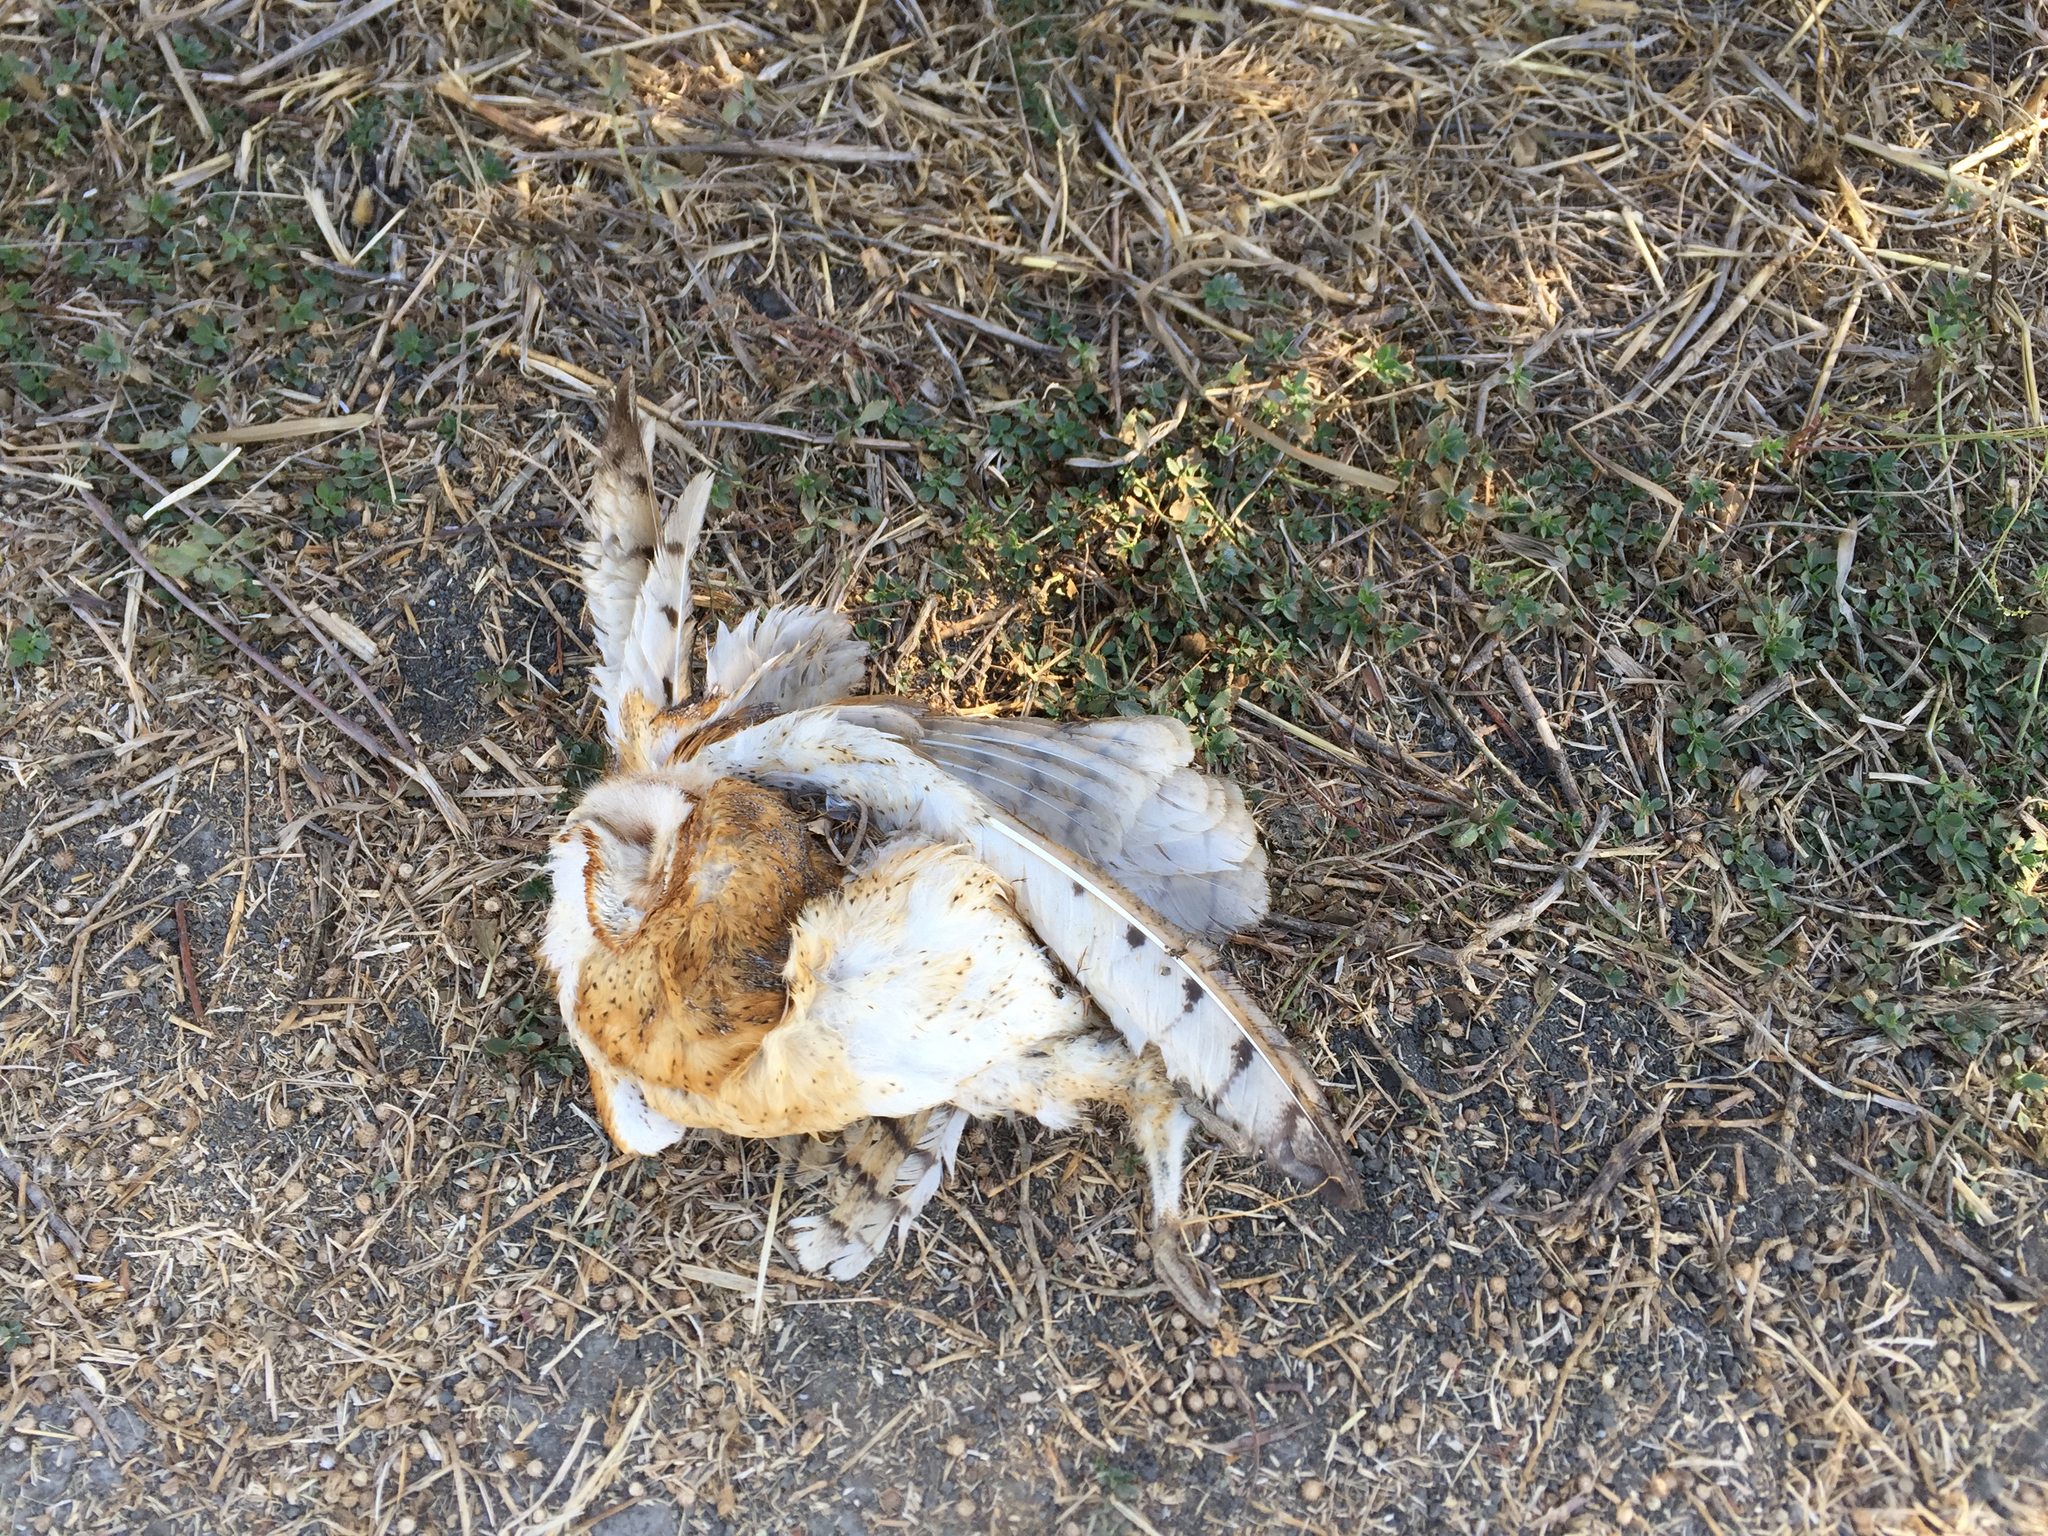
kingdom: Animalia
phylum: Chordata
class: Aves
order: Strigiformes
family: Tytonidae
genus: Tyto
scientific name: Tyto alba
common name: Barn owl
